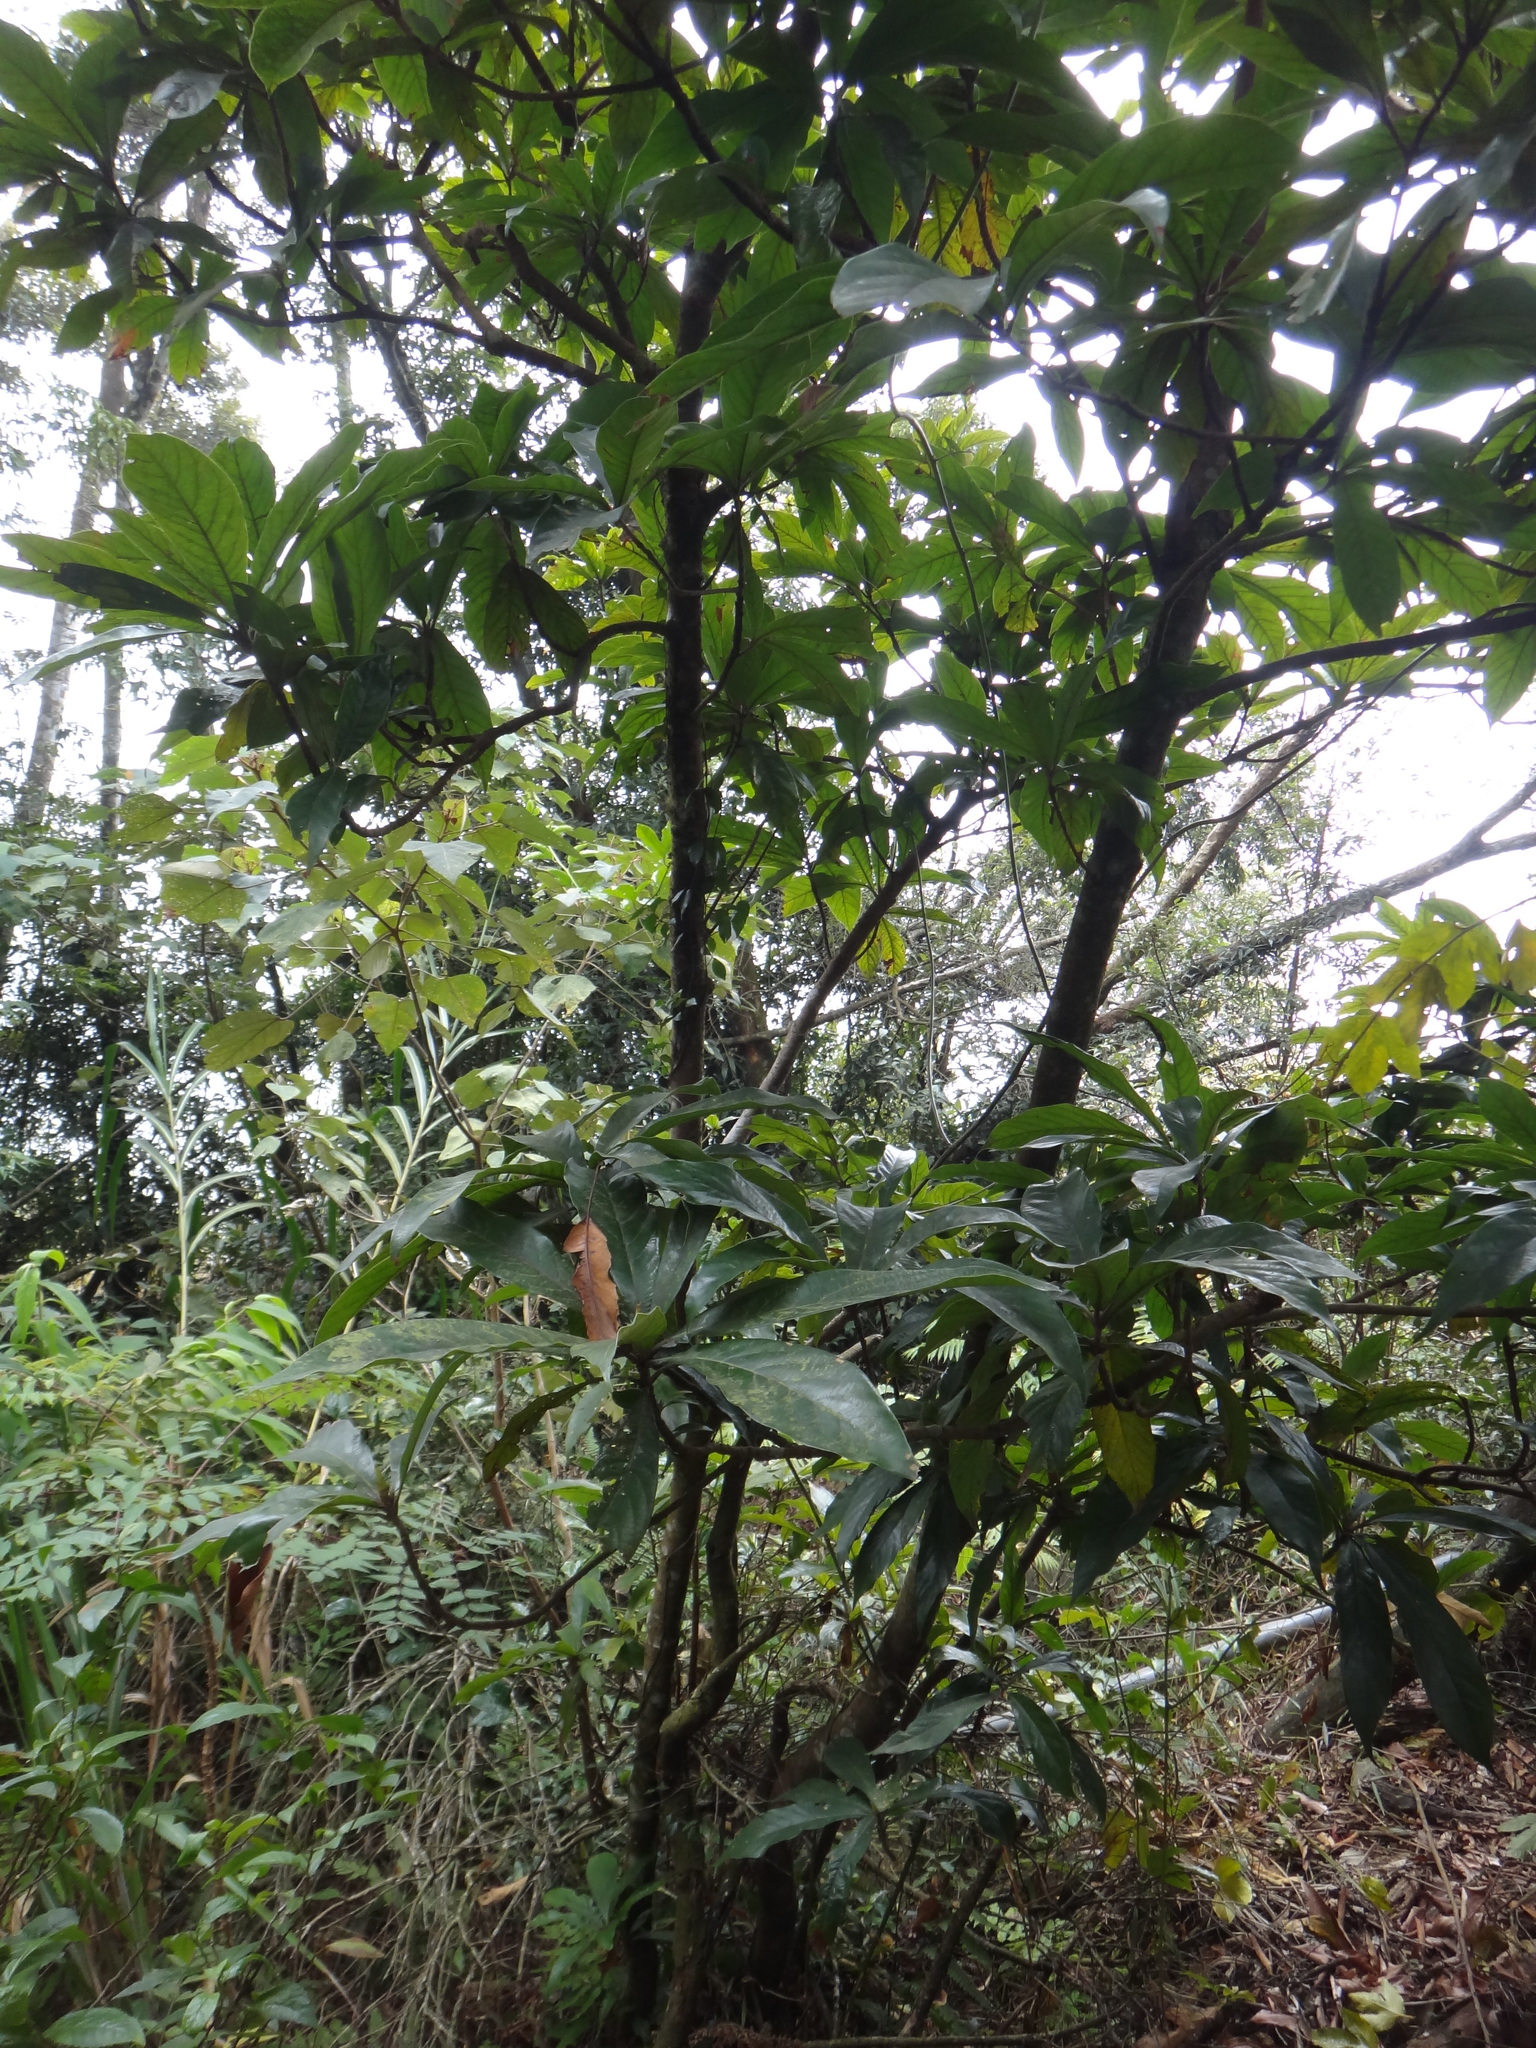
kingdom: Plantae
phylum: Tracheophyta
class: Magnoliopsida
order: Laurales
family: Lauraceae
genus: Litsea
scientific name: Litsea acutivena
